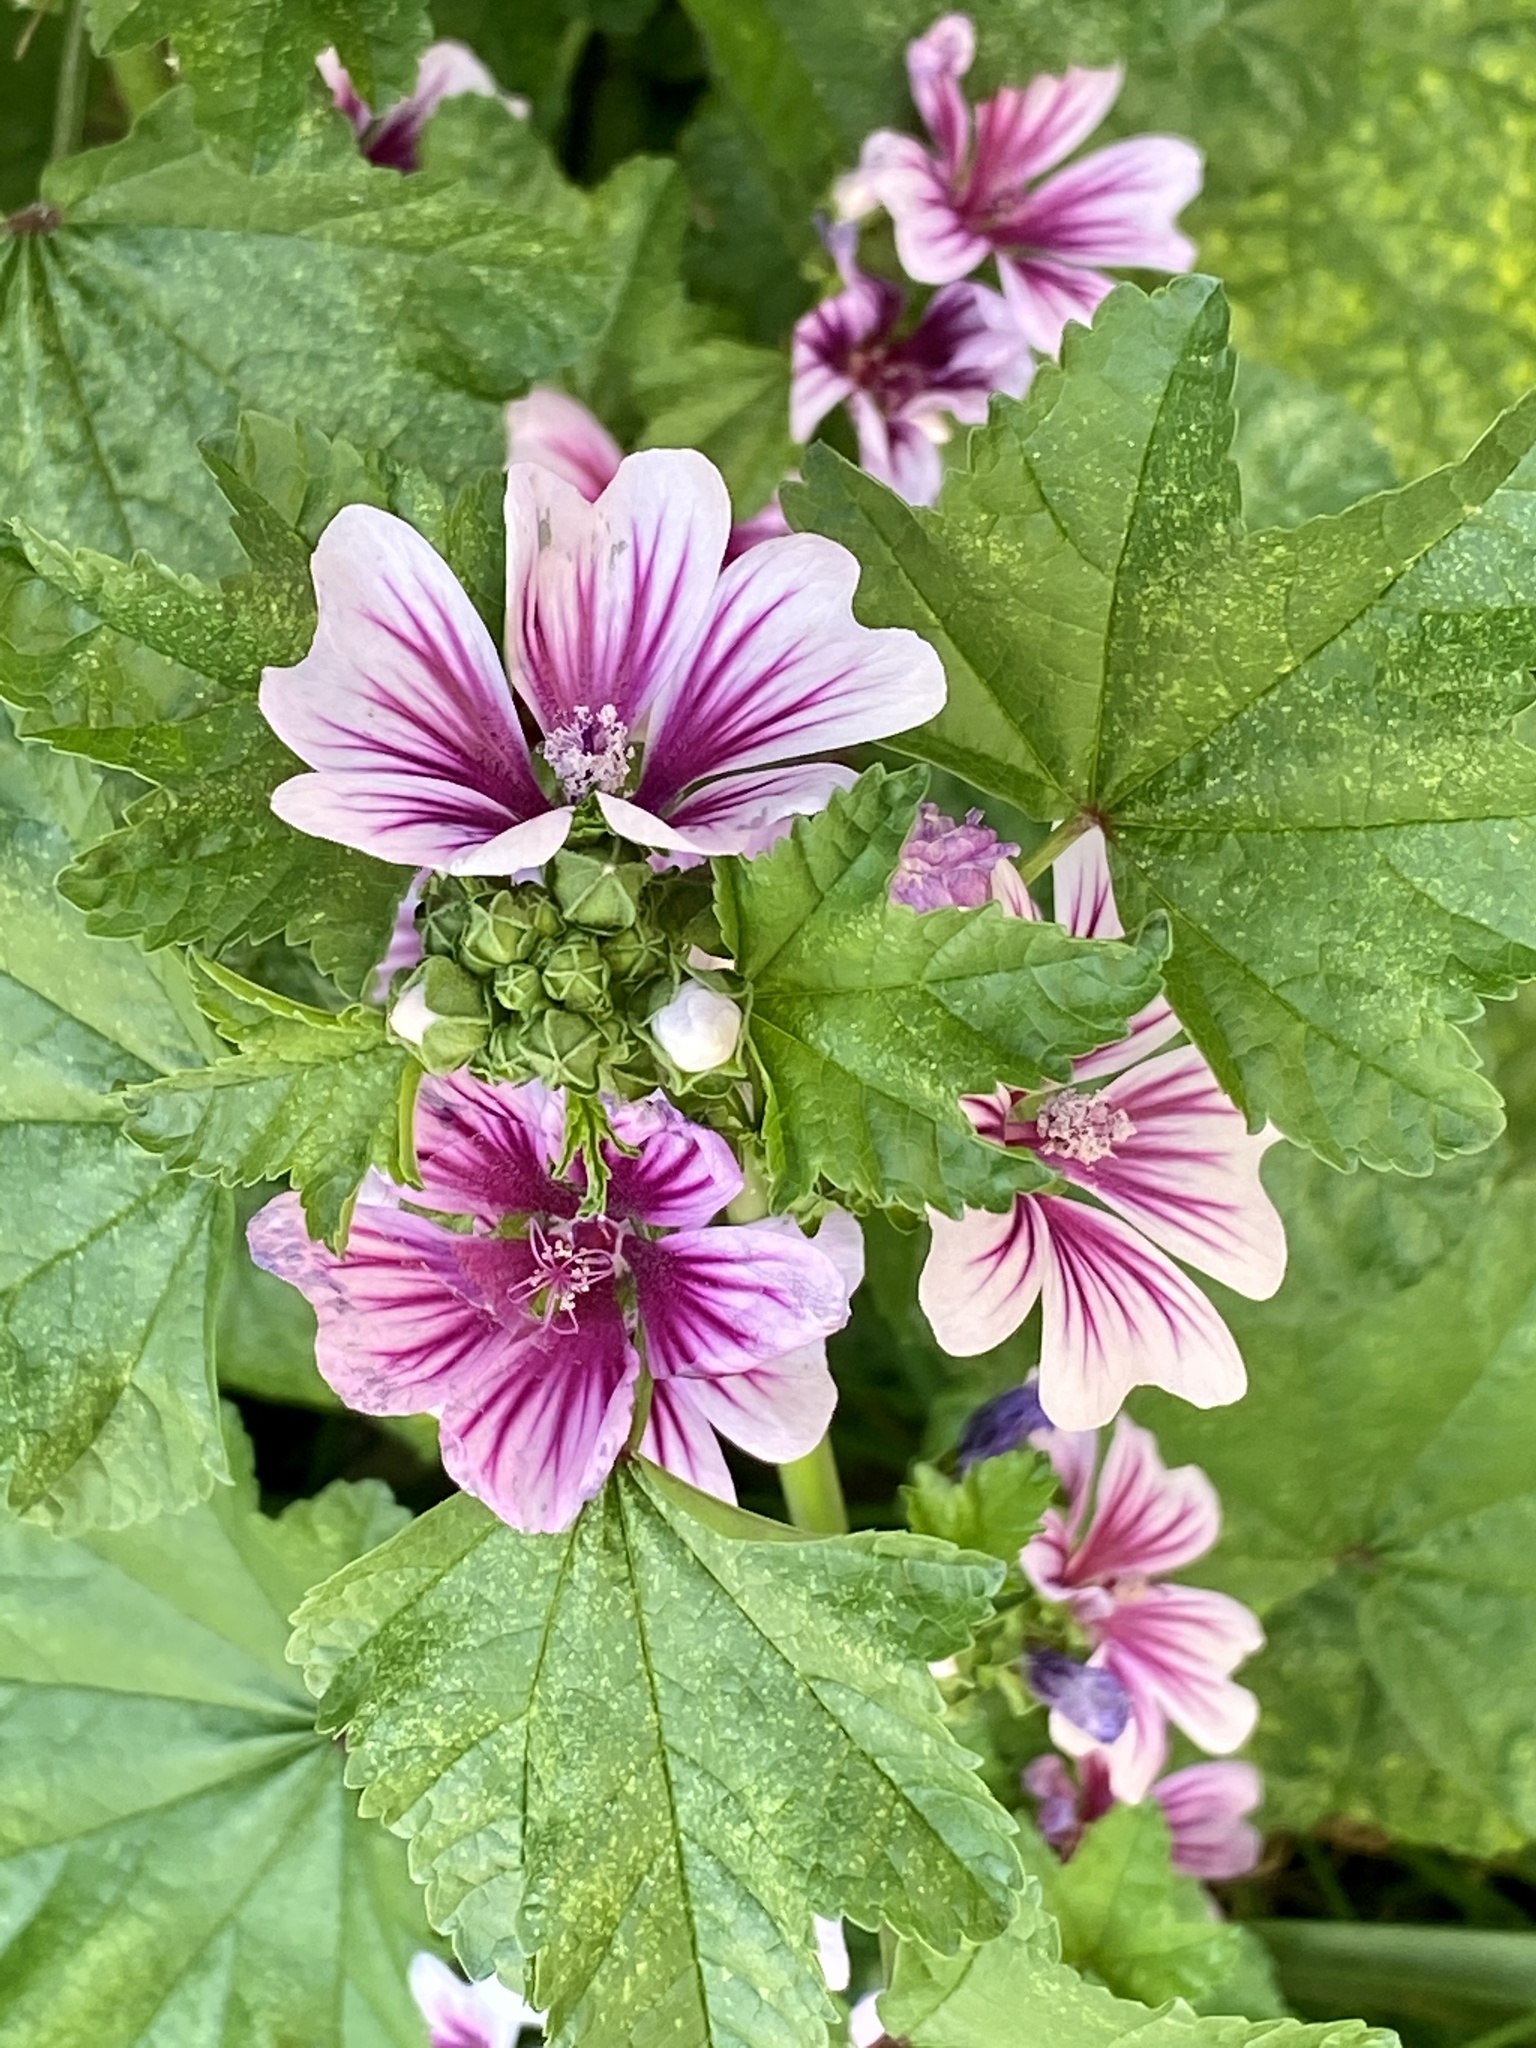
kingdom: Plantae
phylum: Tracheophyta
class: Magnoliopsida
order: Malvales
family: Malvaceae
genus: Malva
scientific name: Malva sylvestris
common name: Common mallow
